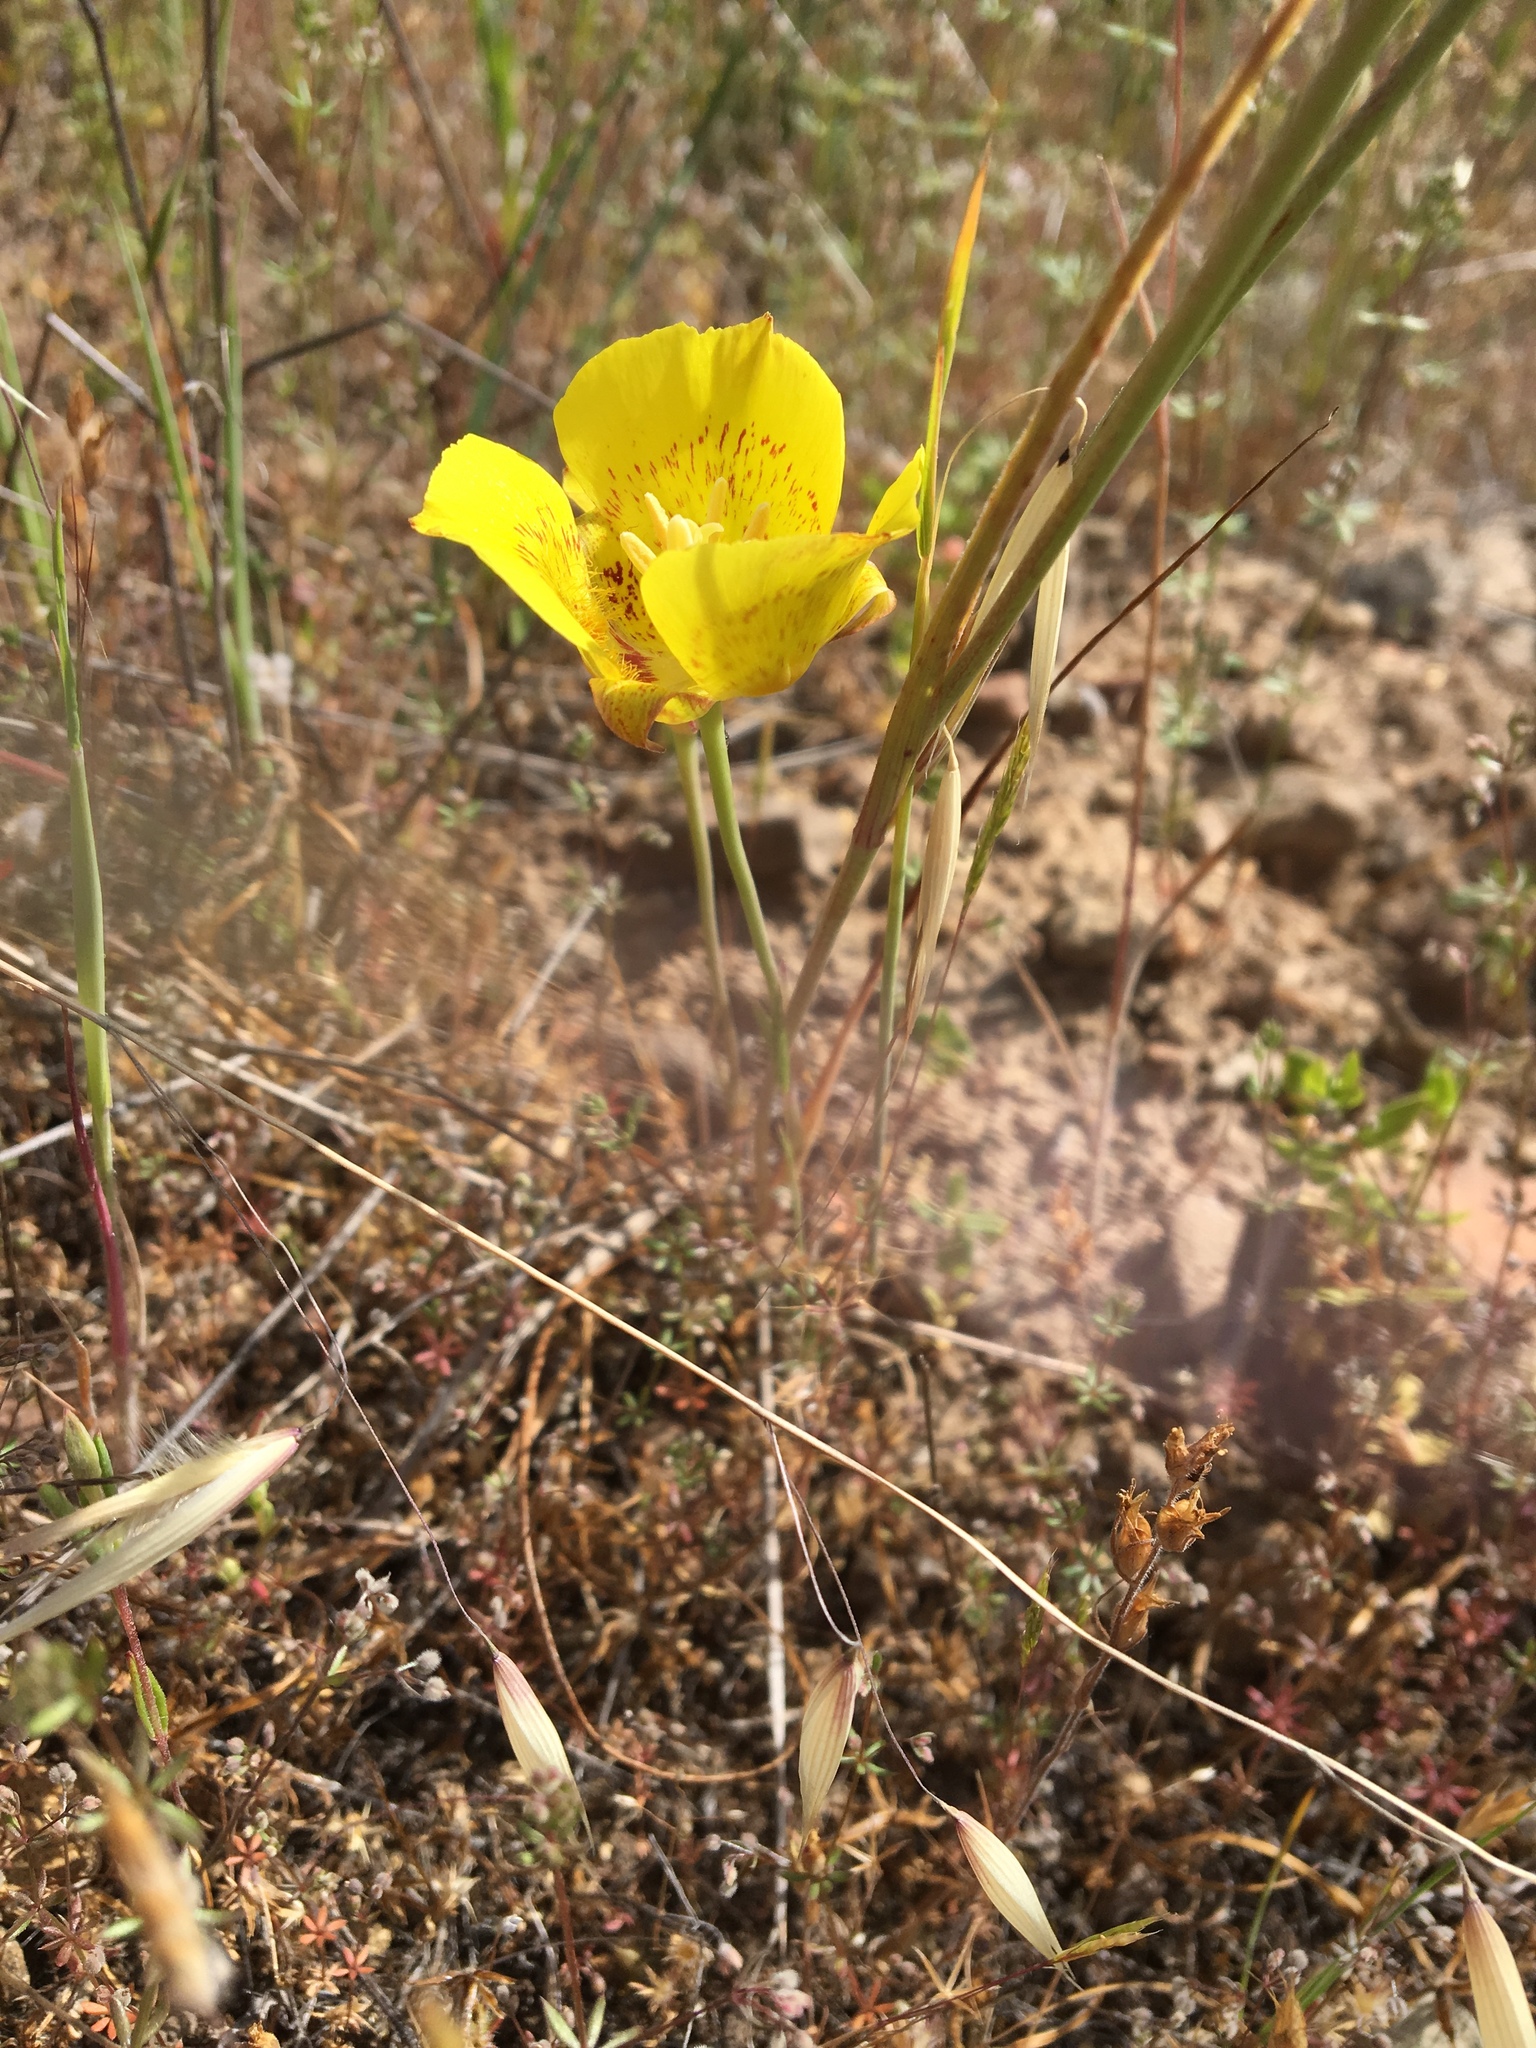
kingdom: Plantae
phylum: Tracheophyta
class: Liliopsida
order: Liliales
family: Liliaceae
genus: Calochortus
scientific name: Calochortus luteus
